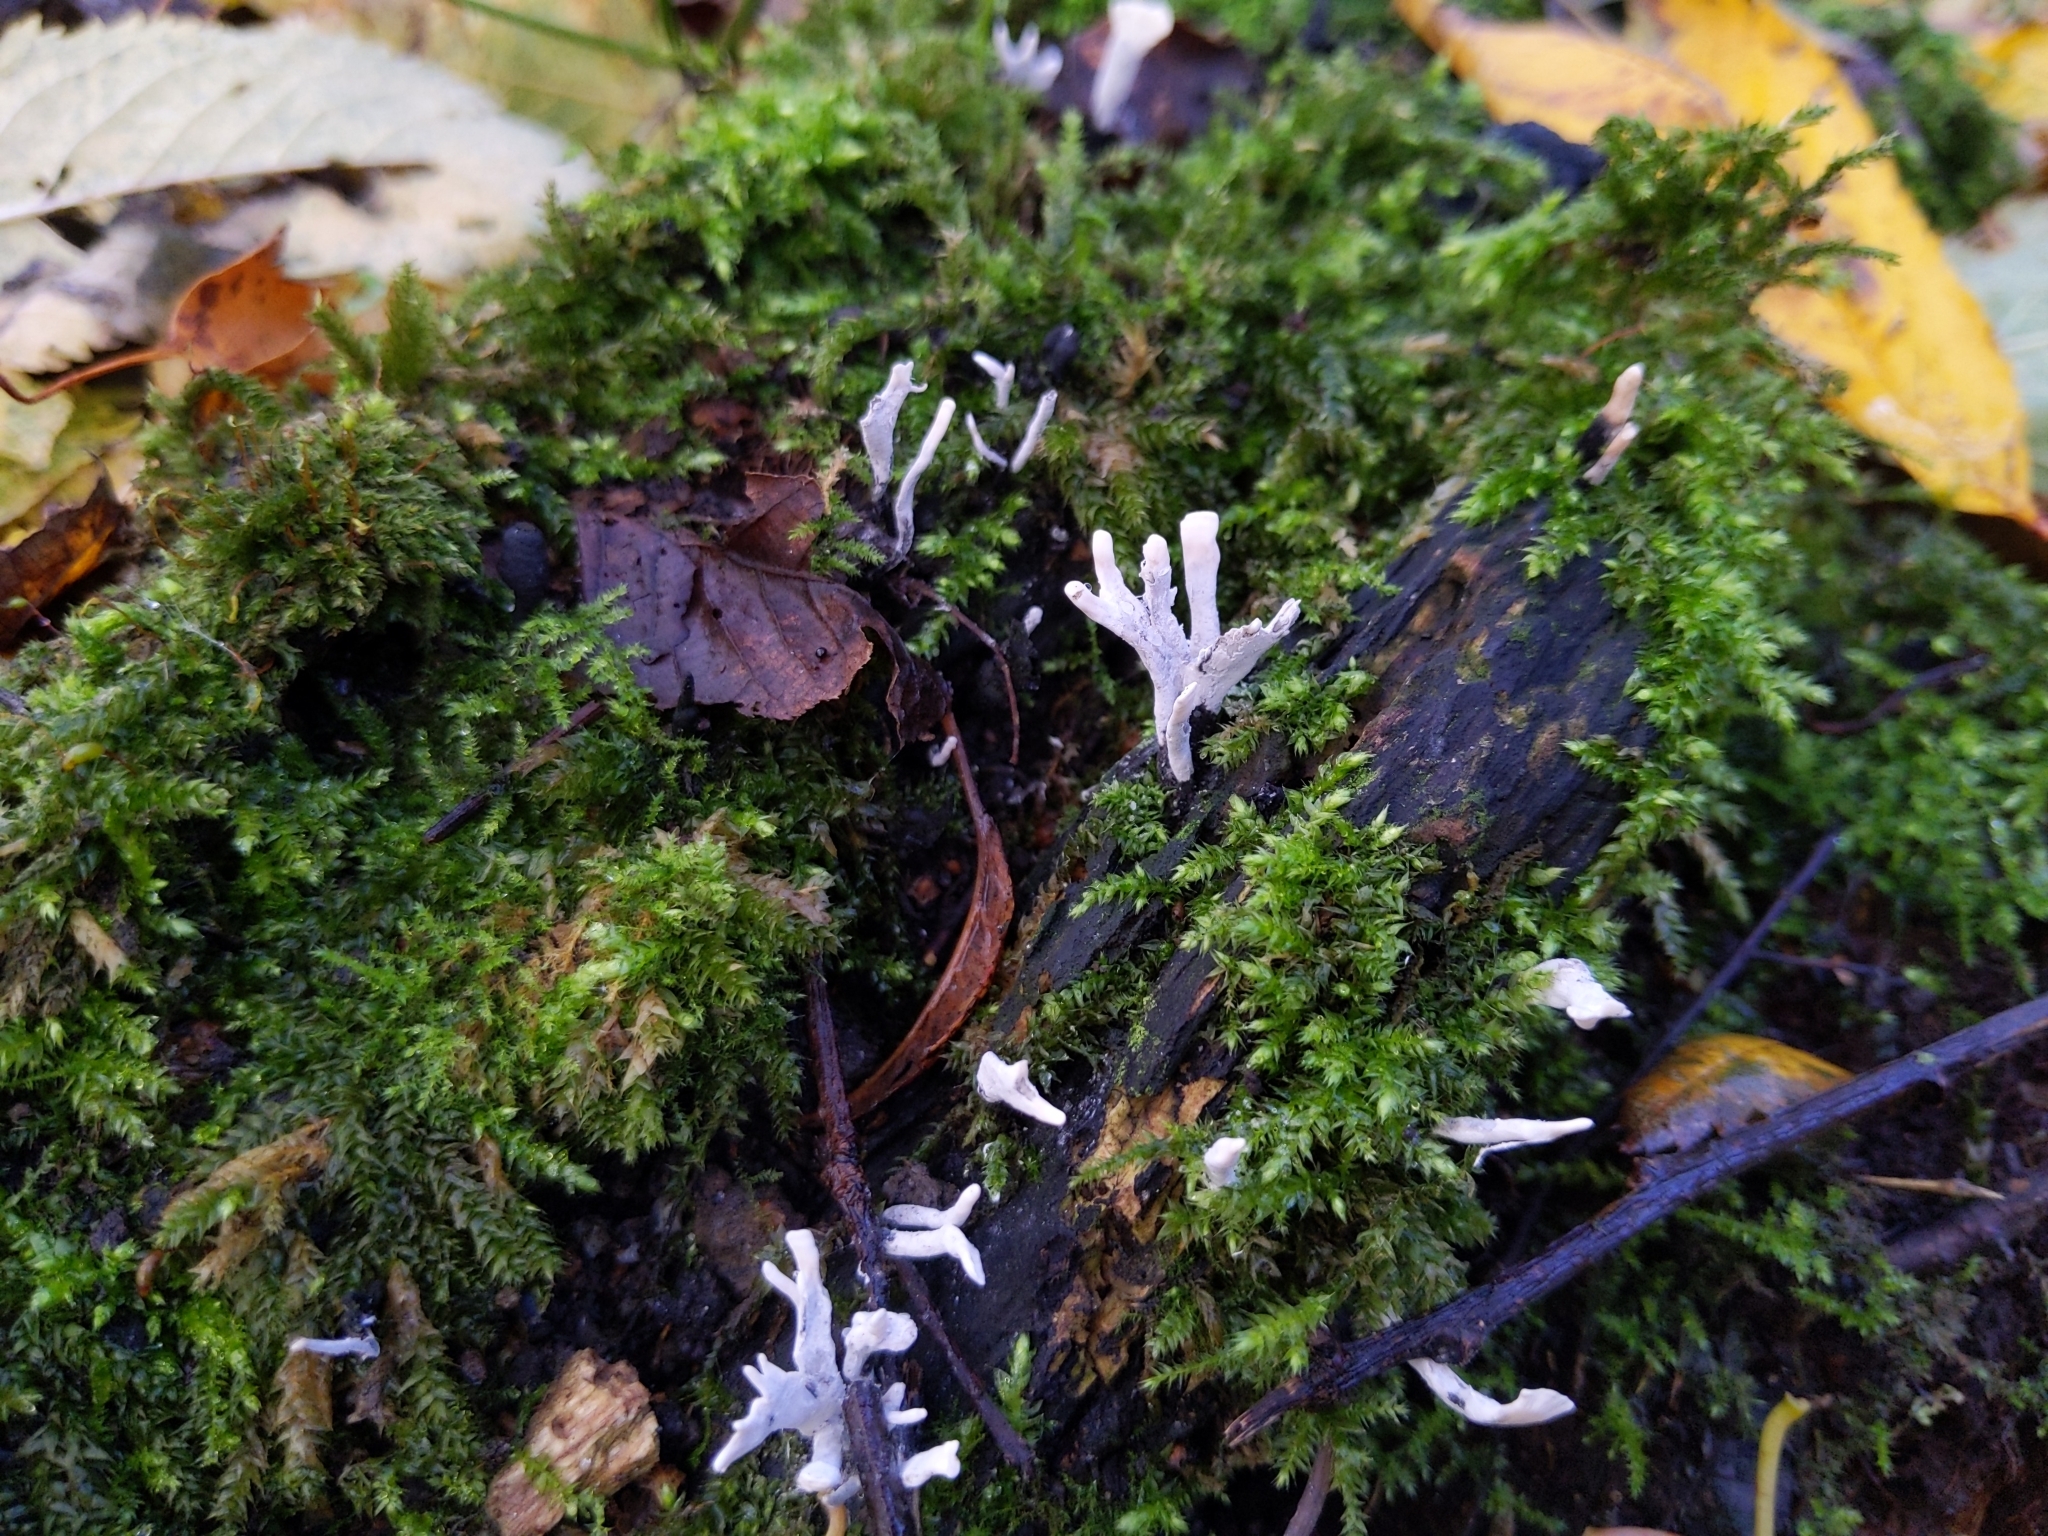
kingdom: Fungi
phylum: Ascomycota
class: Sordariomycetes
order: Xylariales
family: Xylariaceae
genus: Xylaria
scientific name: Xylaria hypoxylon
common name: Candle-snuff fungus
